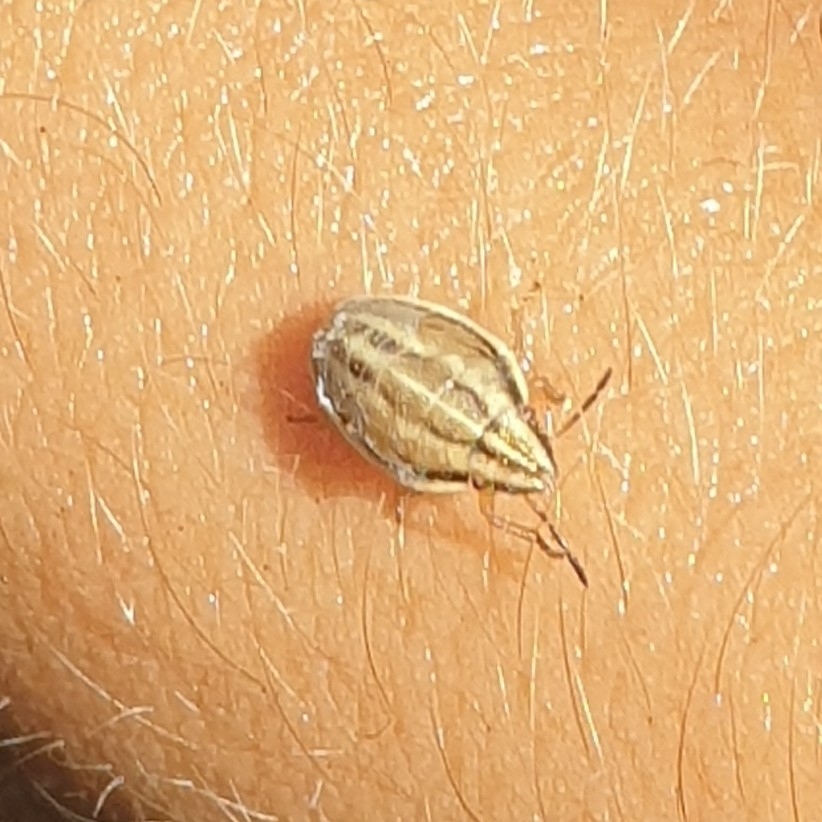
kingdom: Animalia
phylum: Arthropoda
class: Insecta
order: Hemiptera
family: Pentatomidae
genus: Aelia
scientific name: Aelia acuminata
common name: Bishop's mitre
